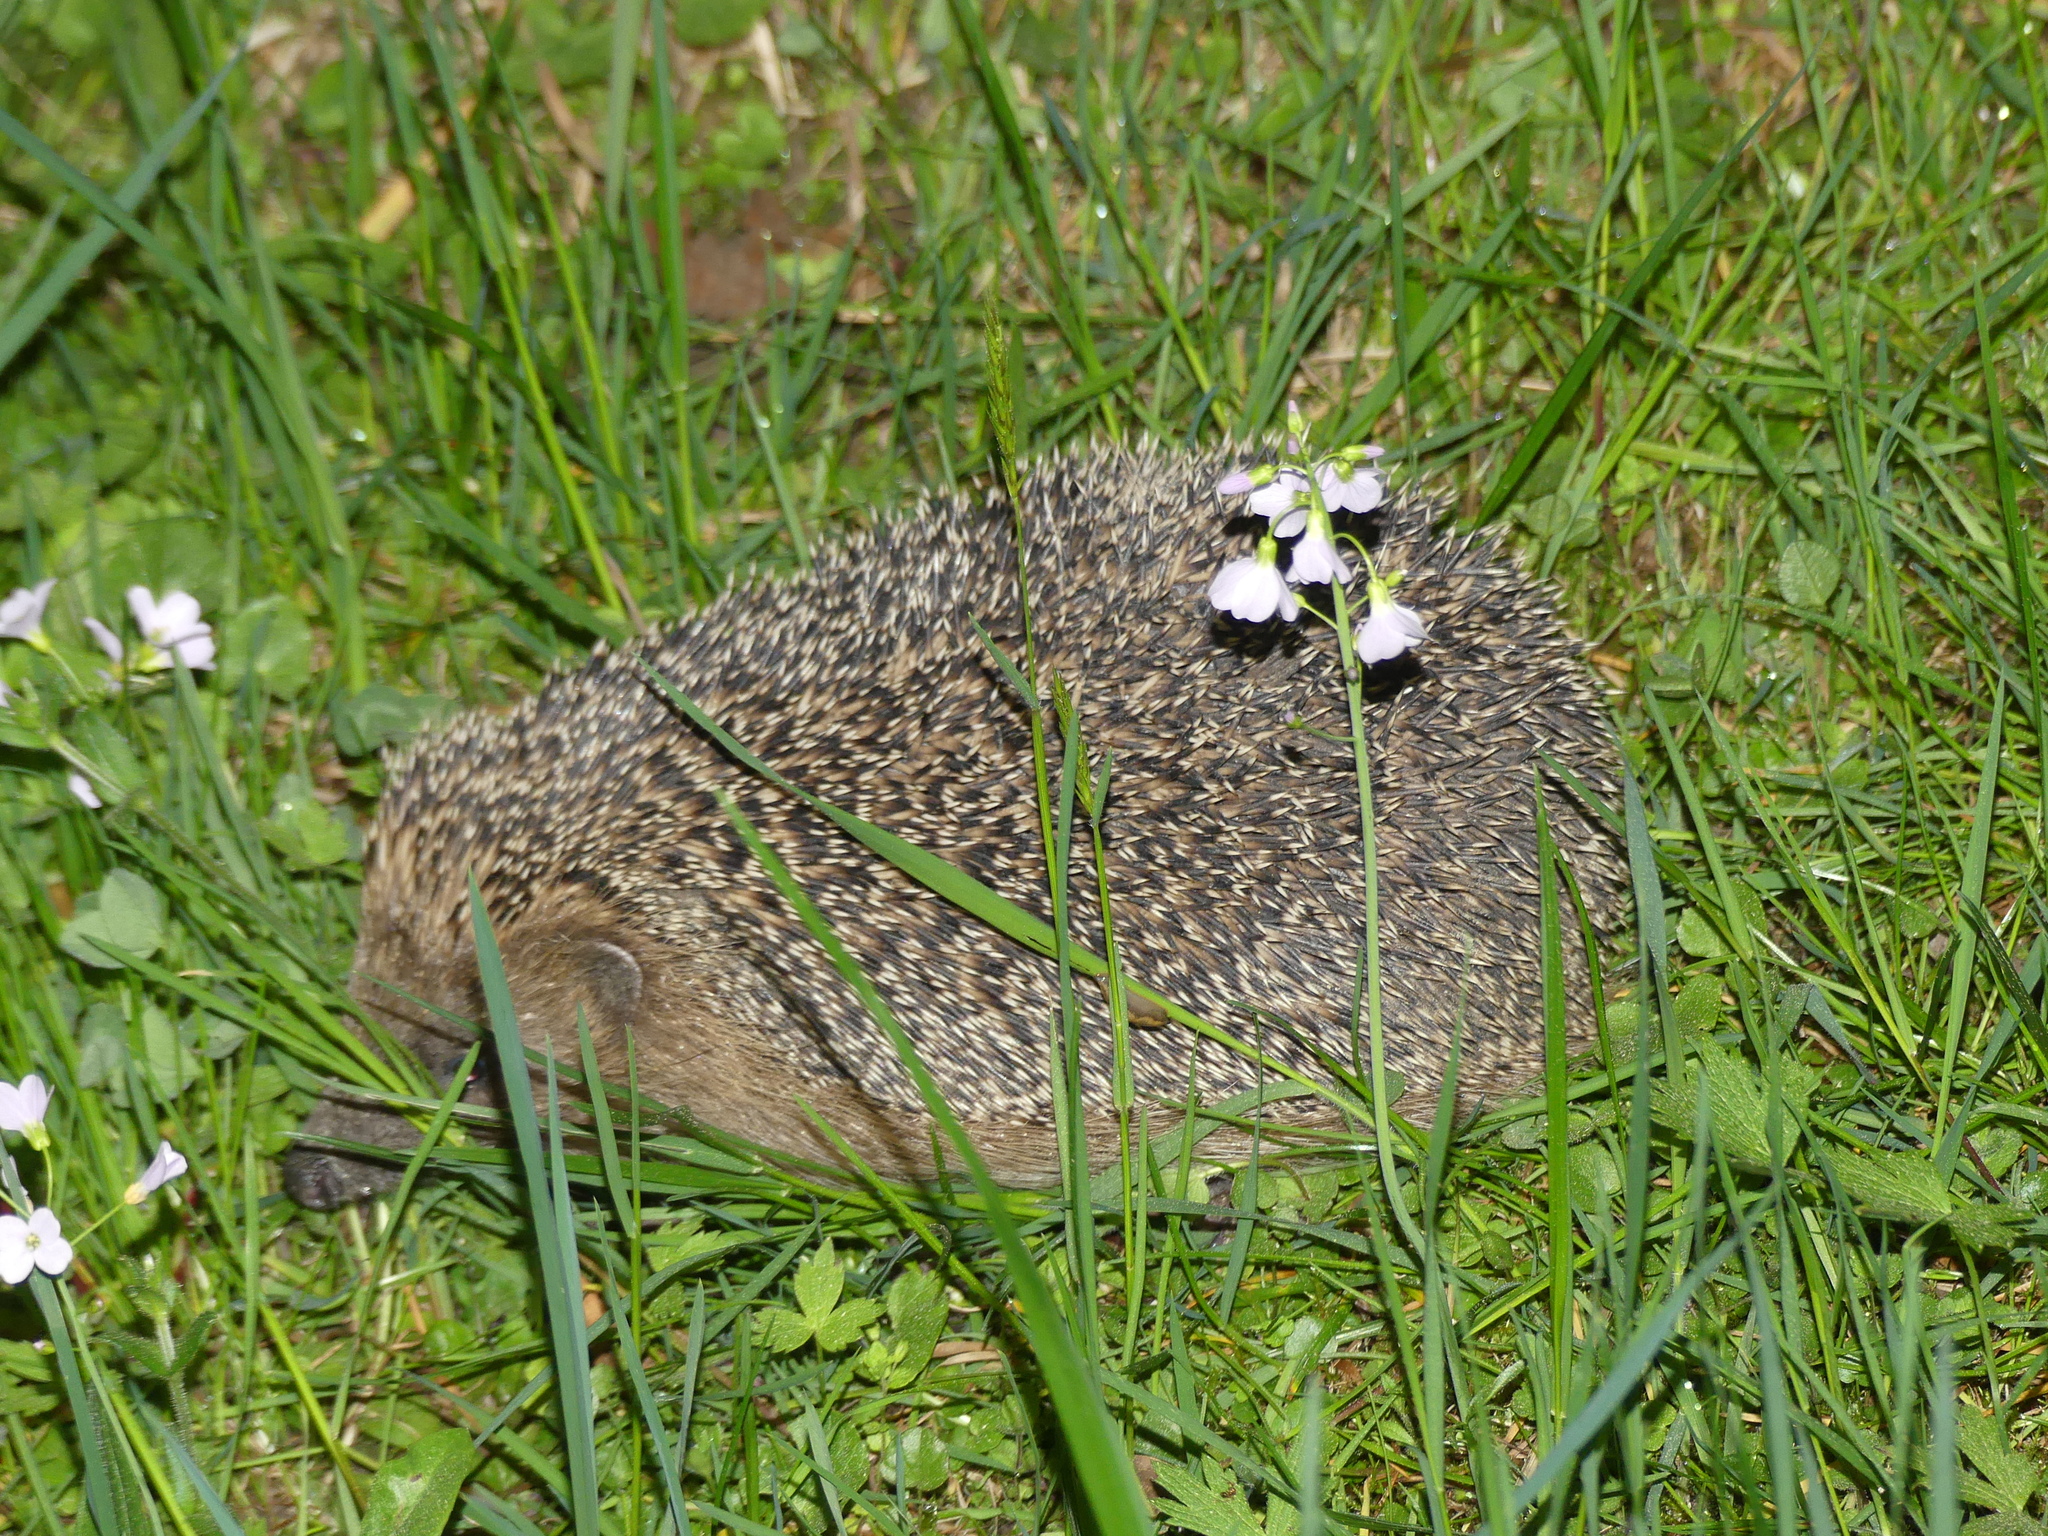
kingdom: Animalia
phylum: Chordata
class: Mammalia
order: Erinaceomorpha
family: Erinaceidae
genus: Erinaceus
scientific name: Erinaceus europaeus
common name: West european hedgehog
